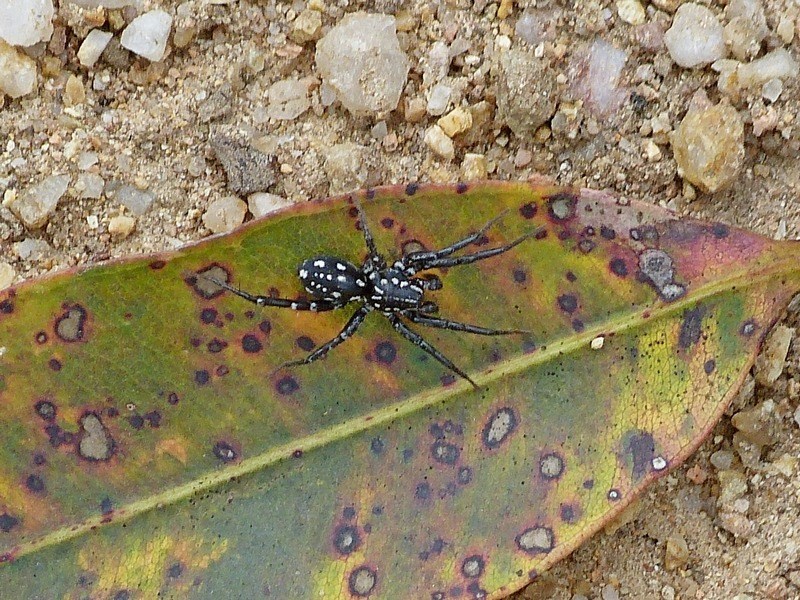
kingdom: Animalia
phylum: Arthropoda
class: Arachnida
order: Araneae
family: Corinnidae
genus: Nyssus
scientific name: Nyssus albopunctatus
